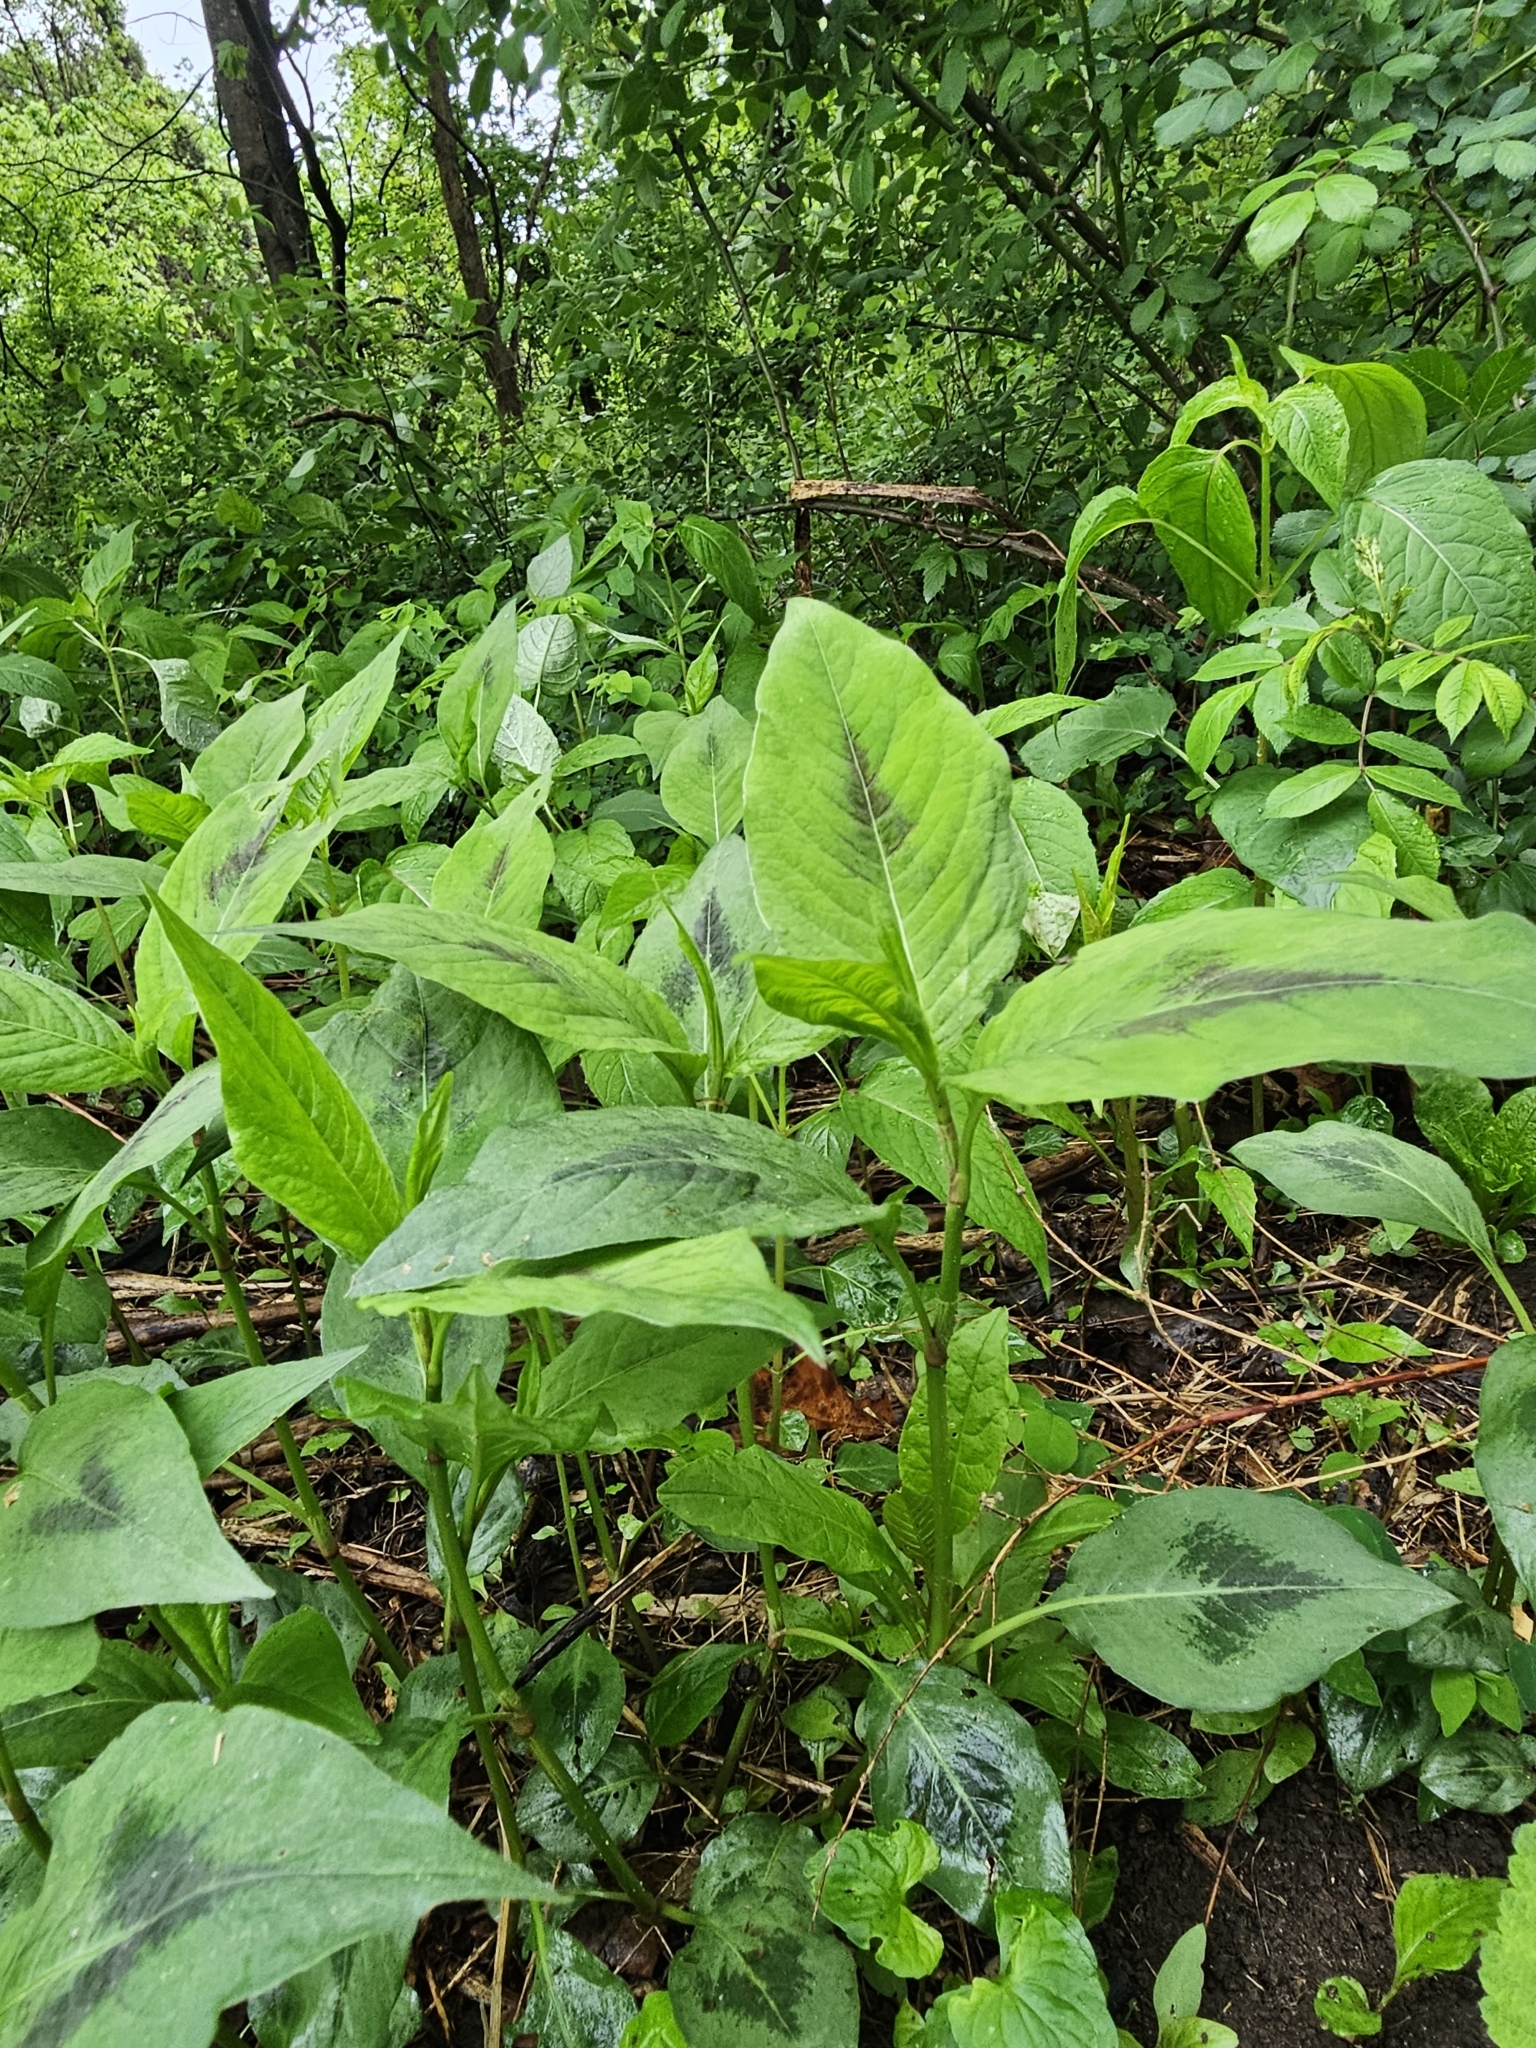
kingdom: Plantae
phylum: Tracheophyta
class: Magnoliopsida
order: Caryophyllales
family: Polygonaceae
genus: Persicaria
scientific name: Persicaria virginiana
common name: Jumpseed
